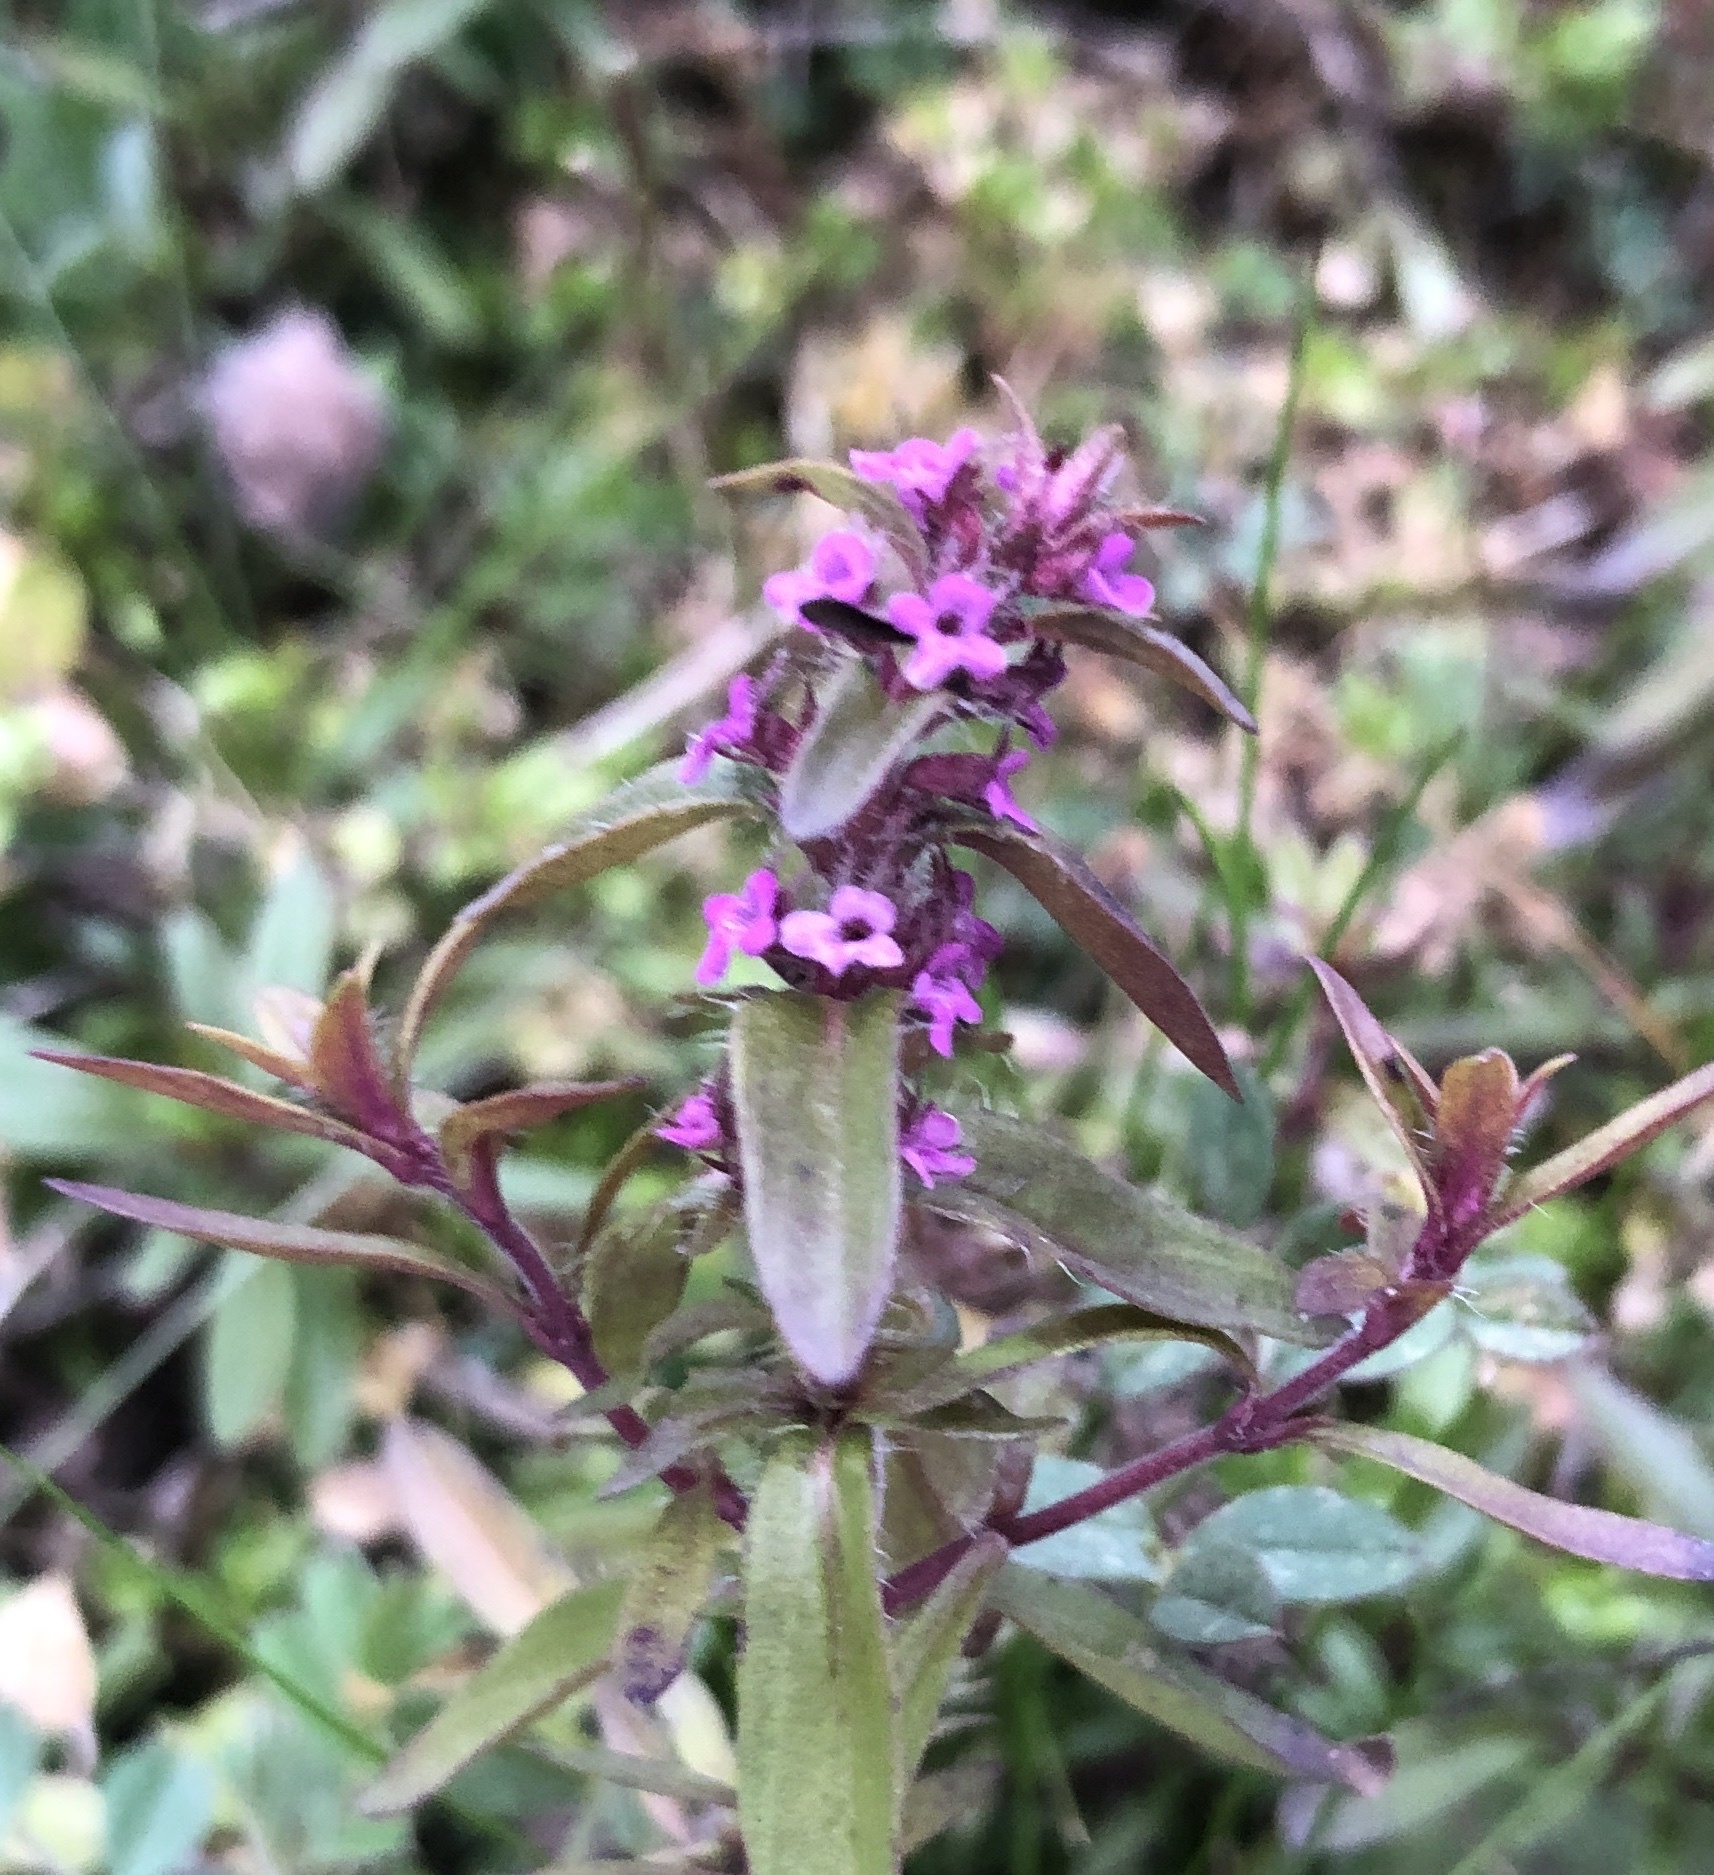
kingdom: Plantae
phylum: Tracheophyta
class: Magnoliopsida
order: Lamiales
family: Lamiaceae
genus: Thymus
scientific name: Thymus pulegioides
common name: Large thyme
